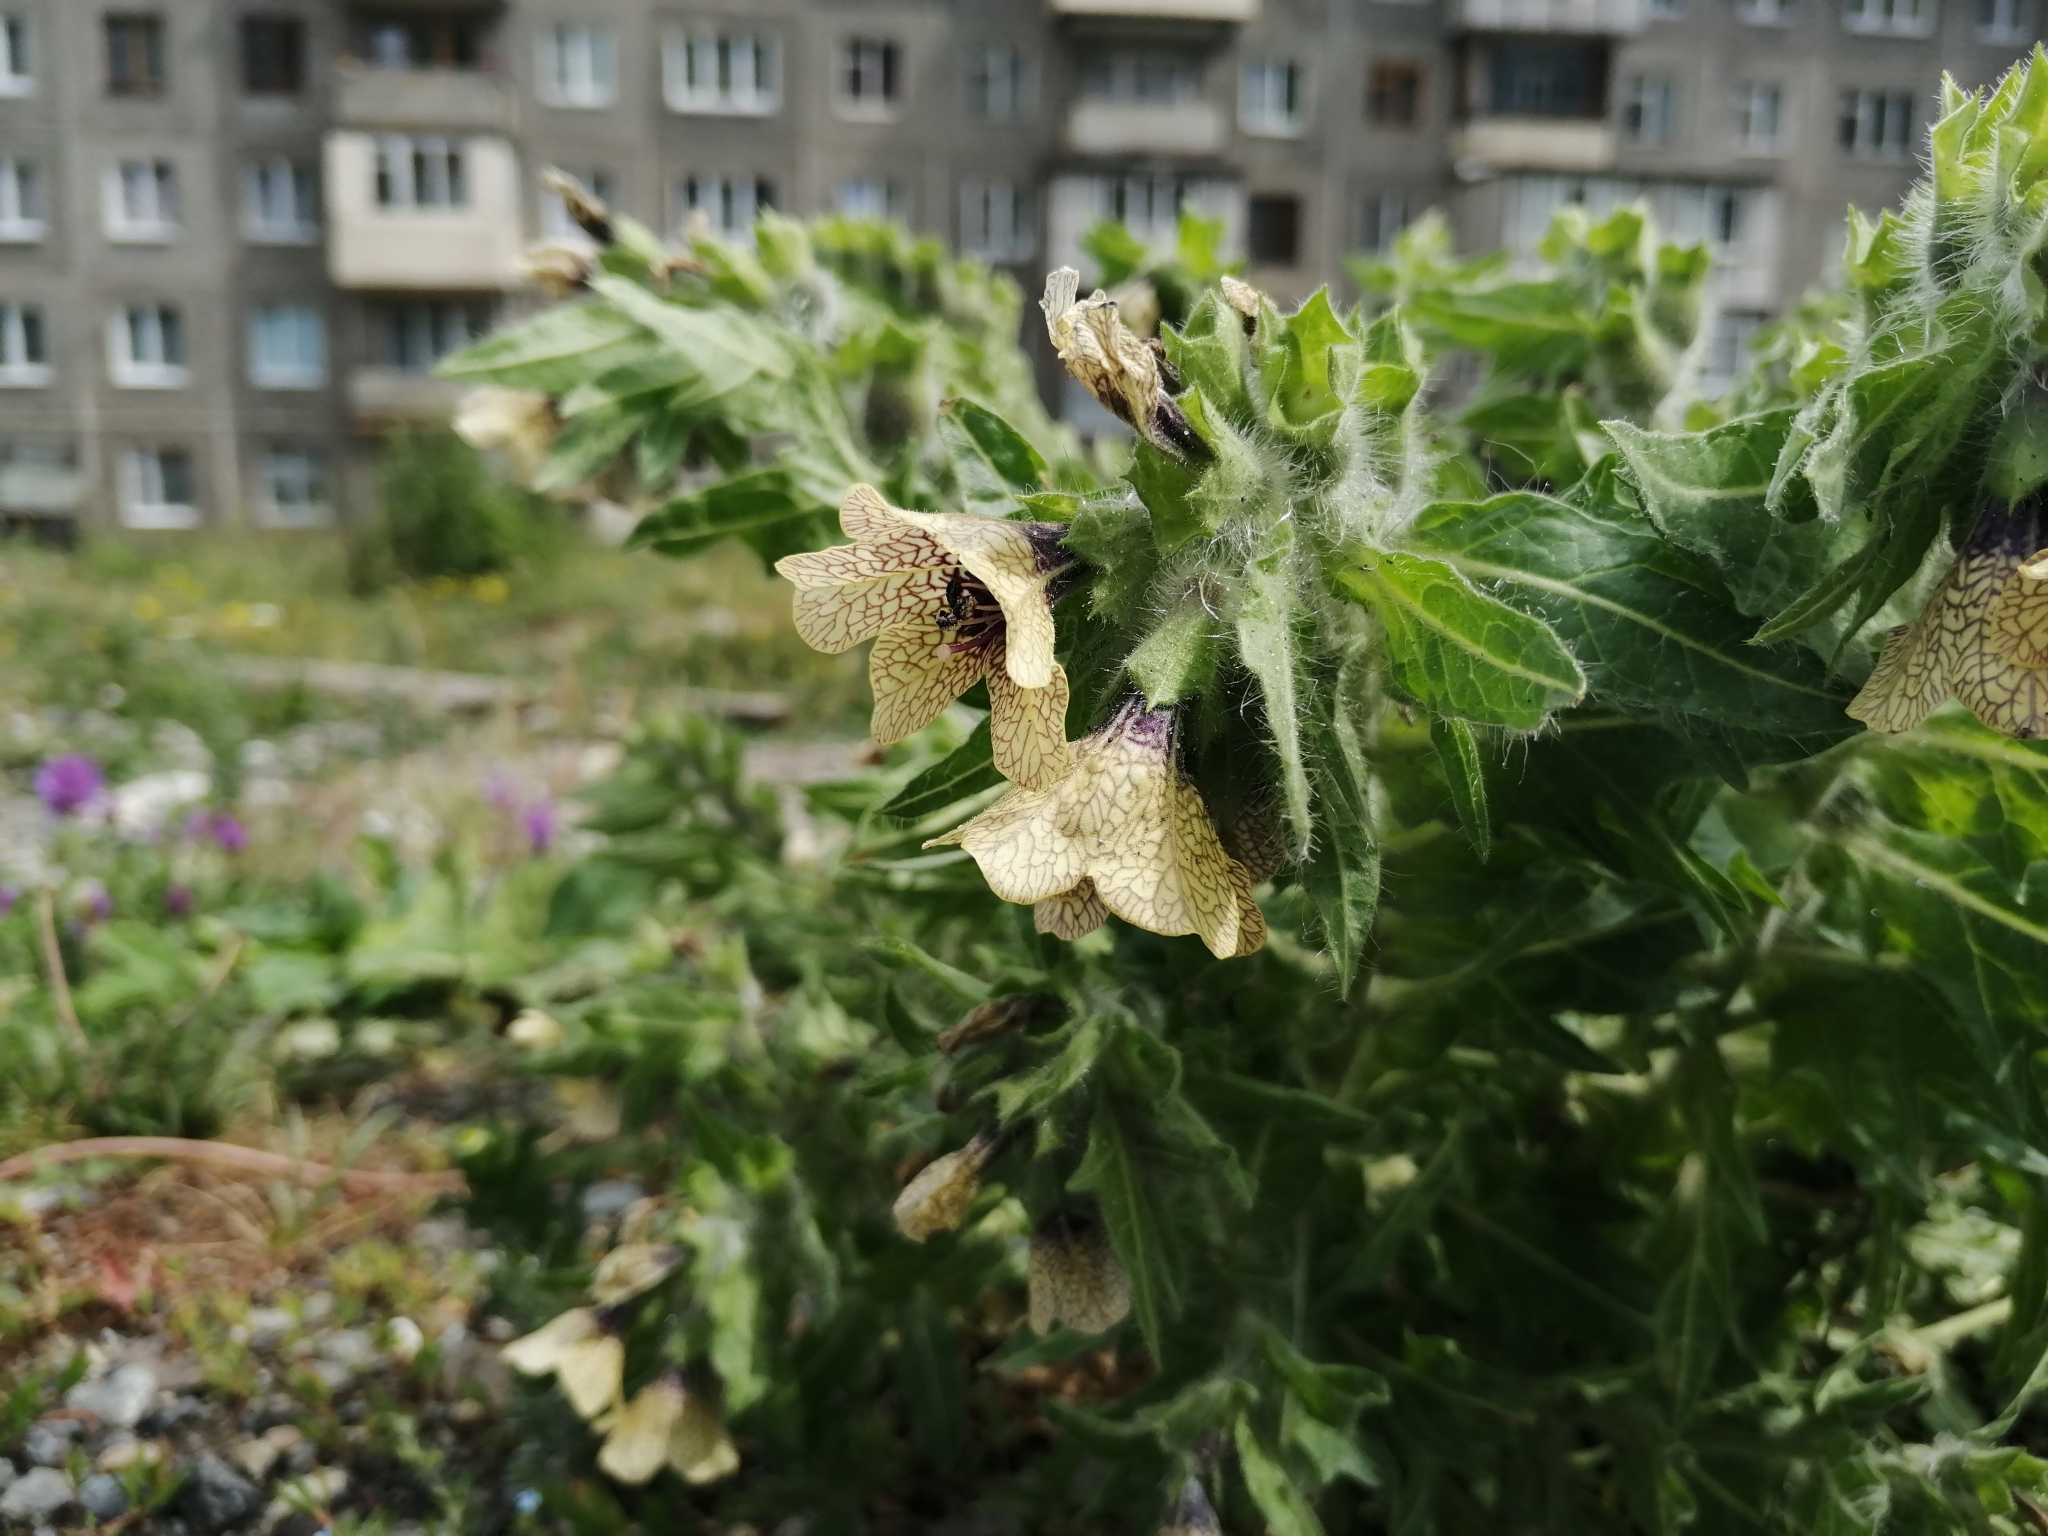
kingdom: Plantae
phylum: Tracheophyta
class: Magnoliopsida
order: Solanales
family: Solanaceae
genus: Hyoscyamus
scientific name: Hyoscyamus niger
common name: Henbane
